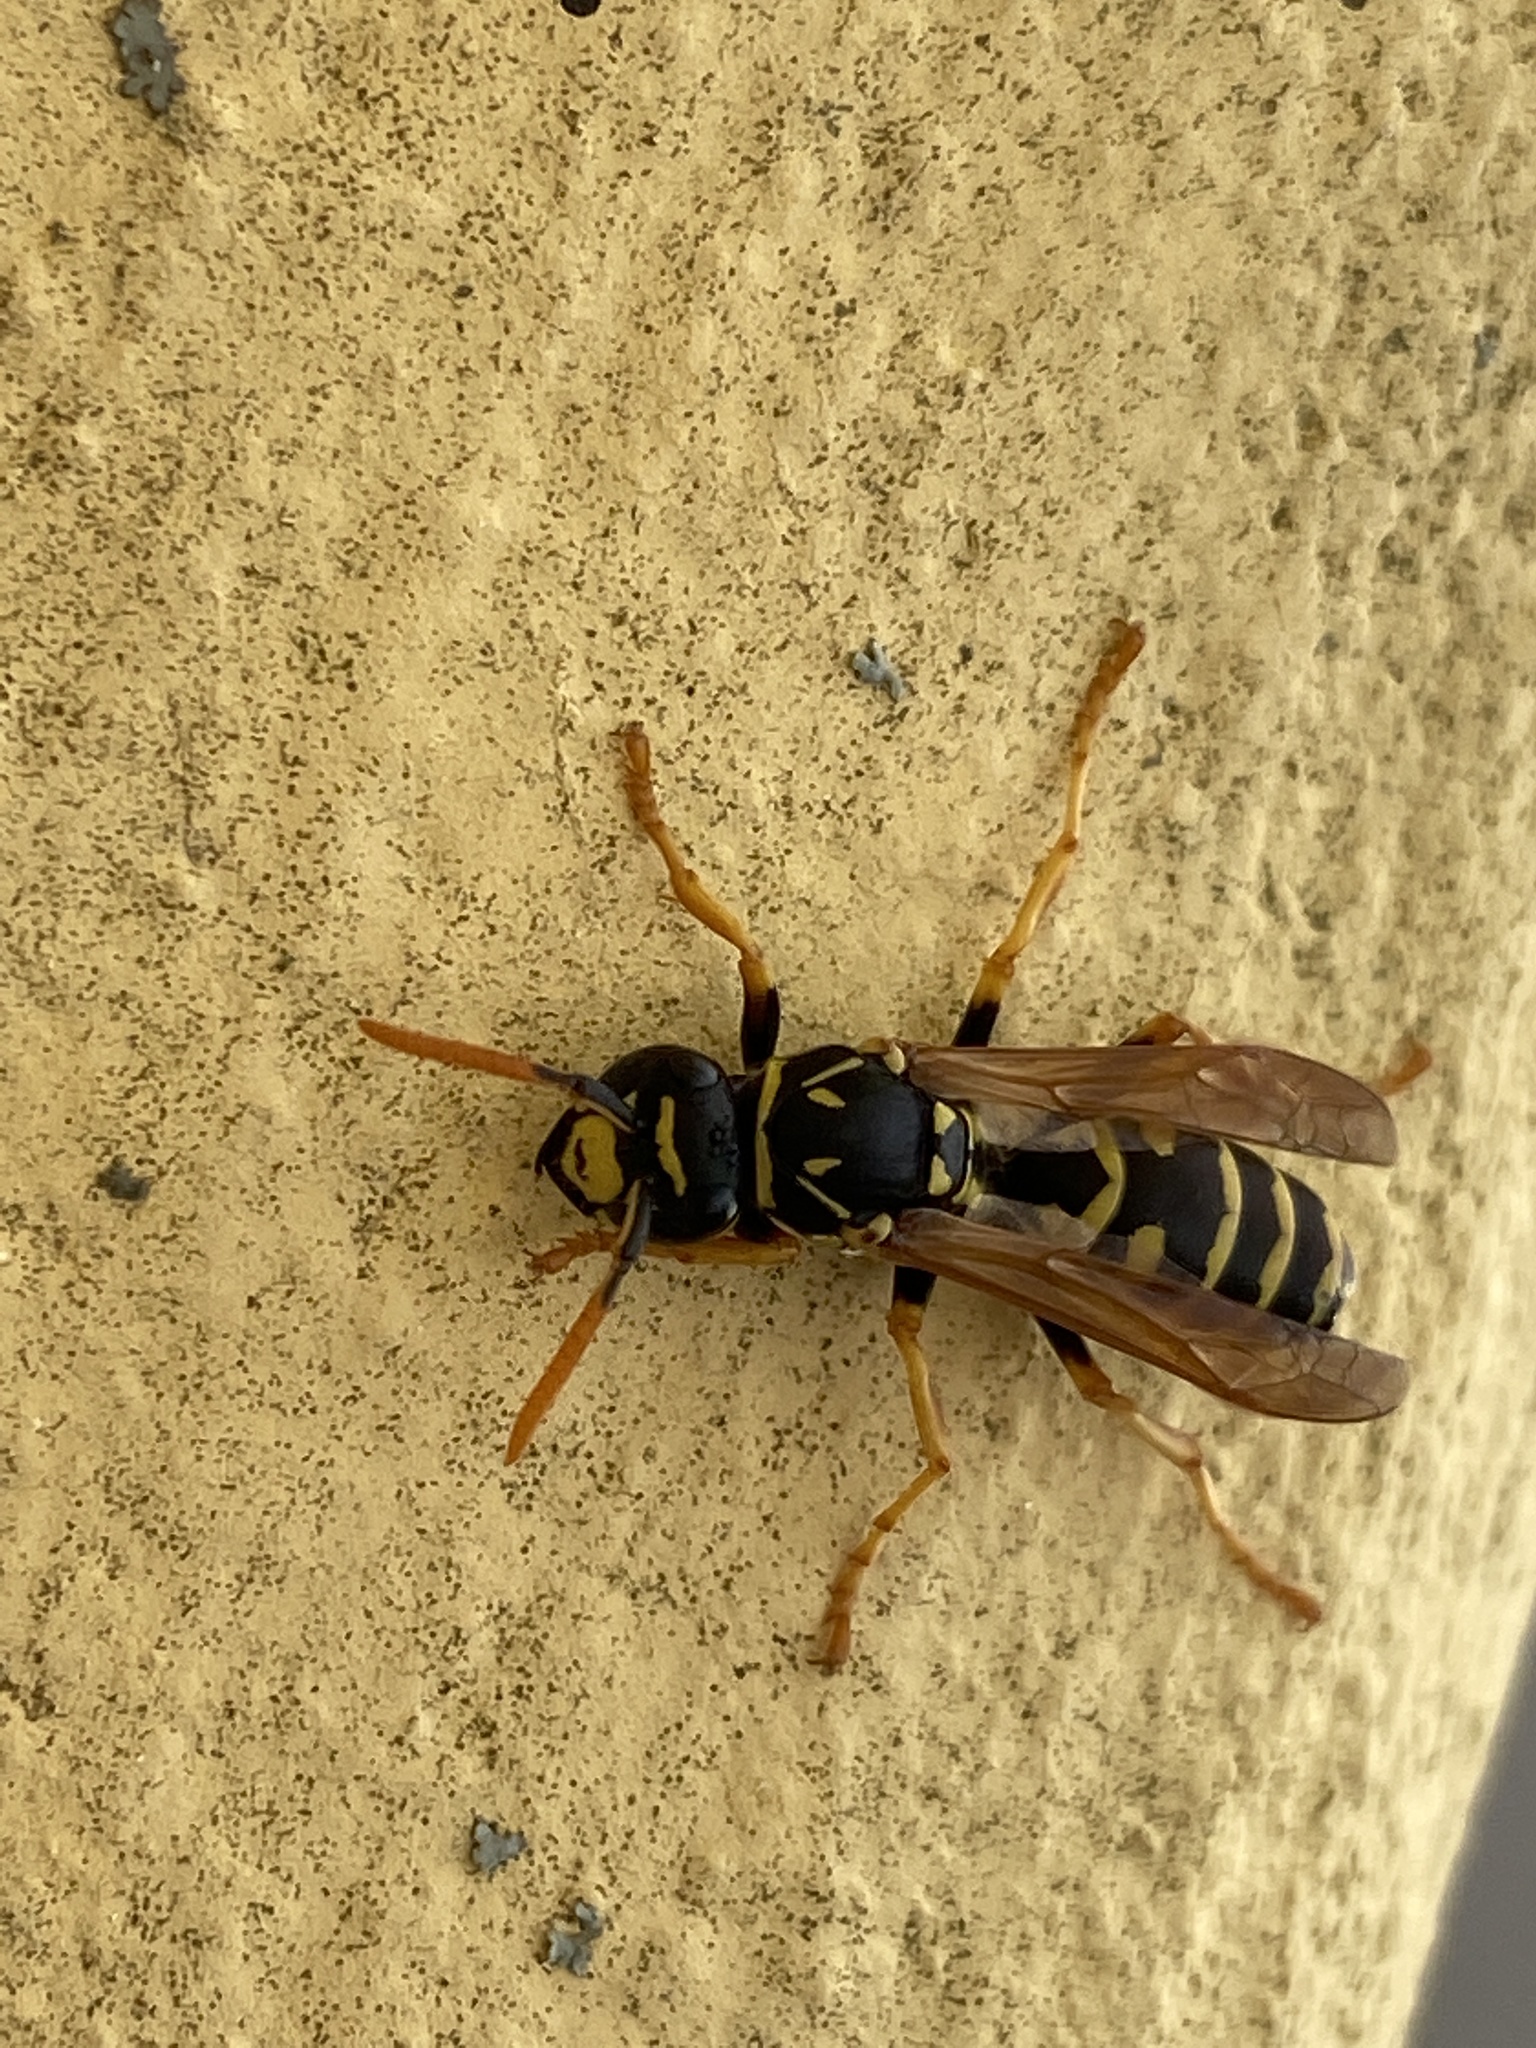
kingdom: Animalia
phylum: Arthropoda
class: Insecta
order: Hymenoptera
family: Eumenidae
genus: Polistes
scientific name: Polistes dominula
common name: Paper wasp
